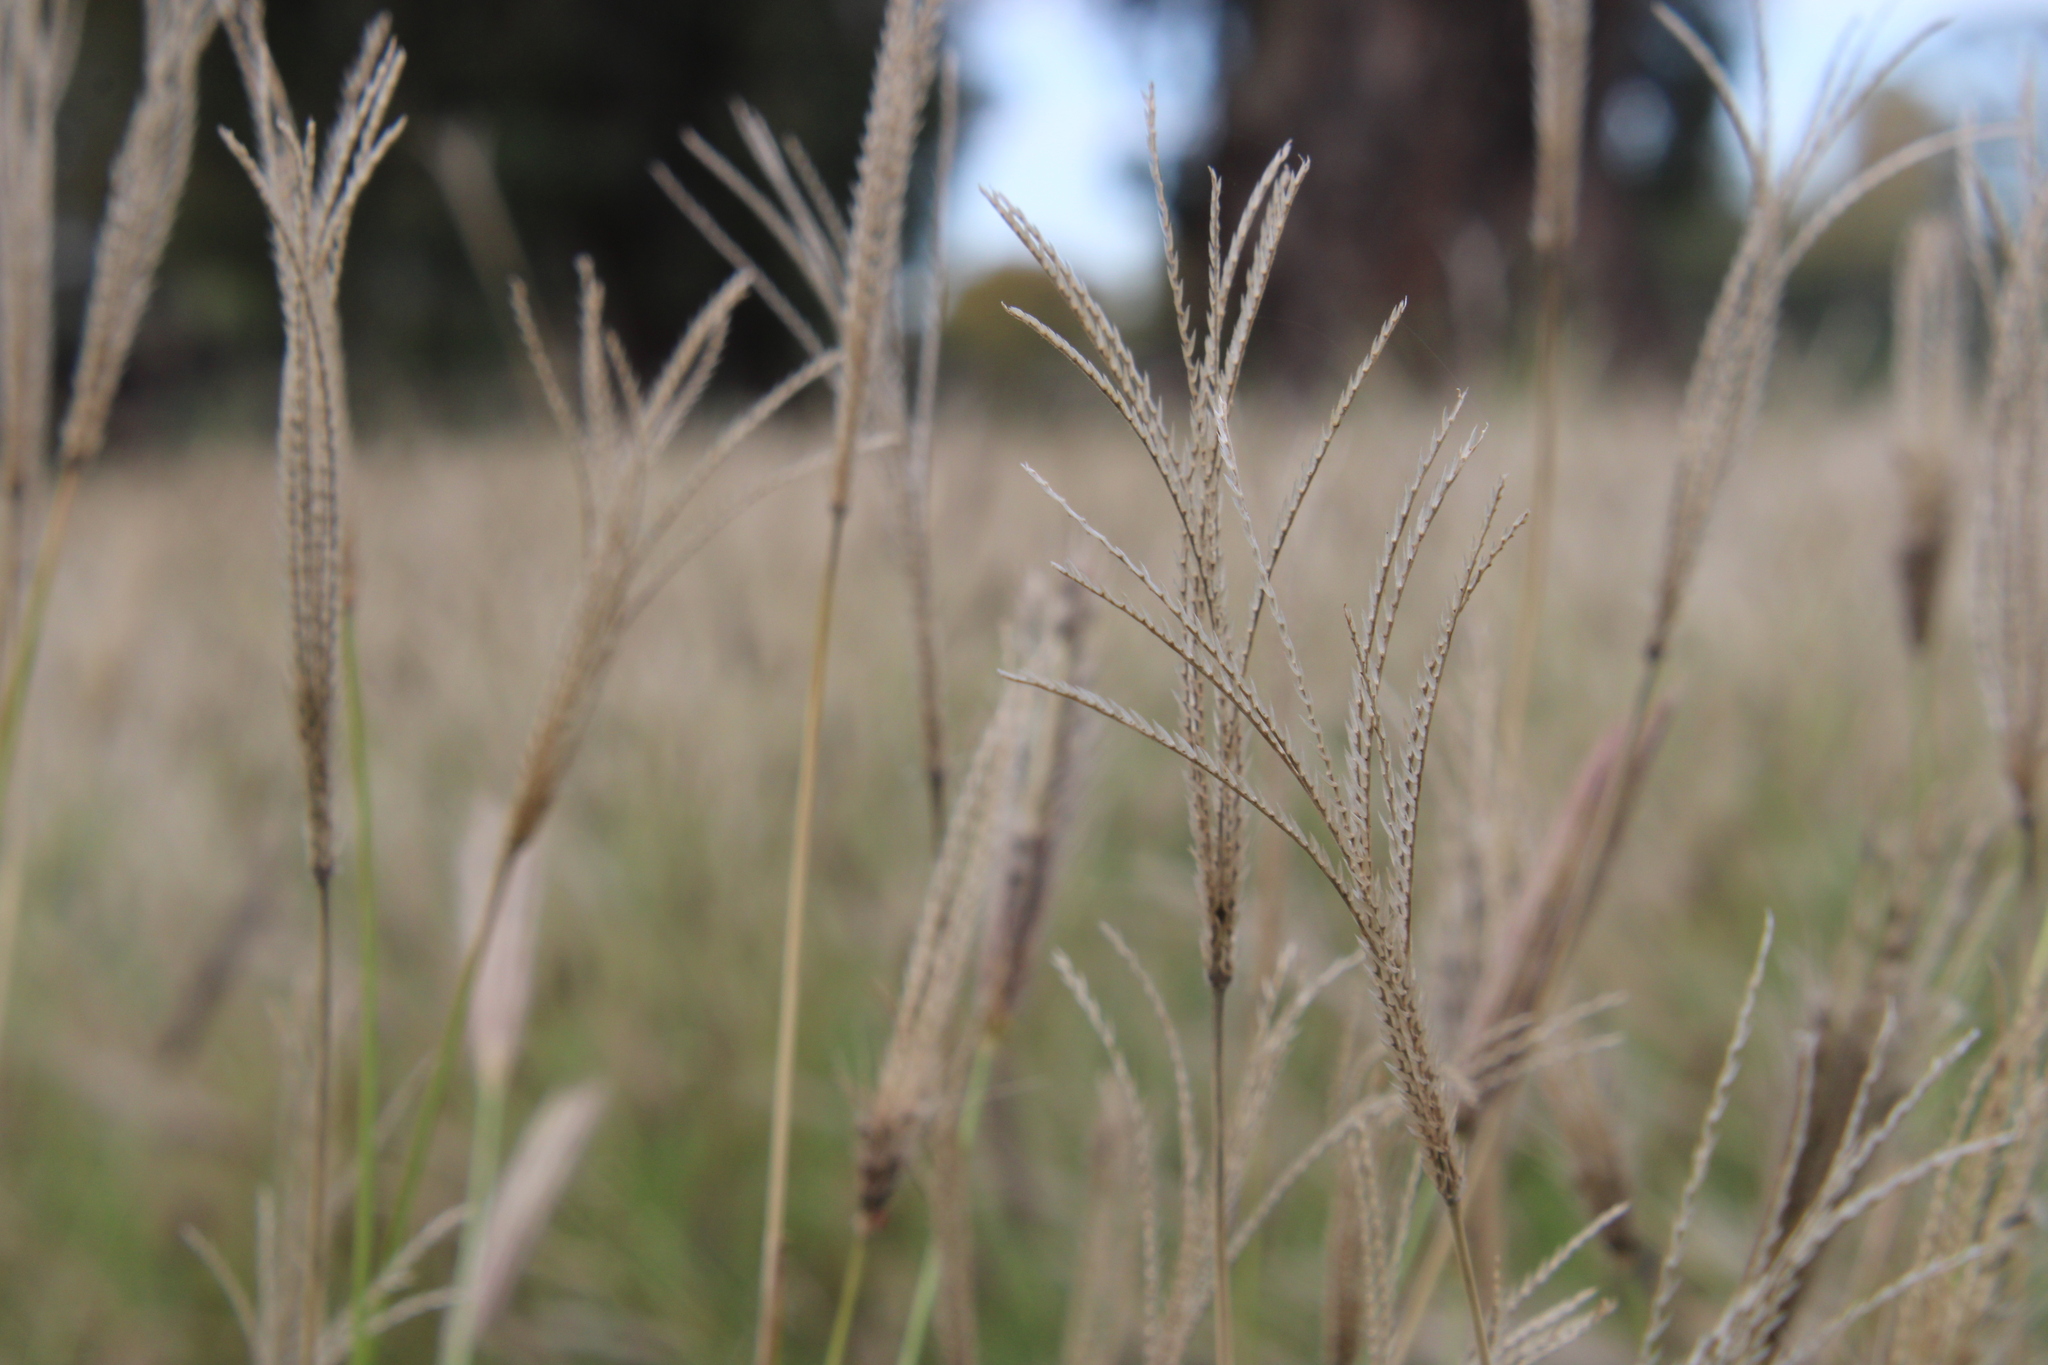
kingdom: Plantae
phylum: Tracheophyta
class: Liliopsida
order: Poales
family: Poaceae
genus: Chloris
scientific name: Chloris virgata
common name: Feathery rhodes-grass
